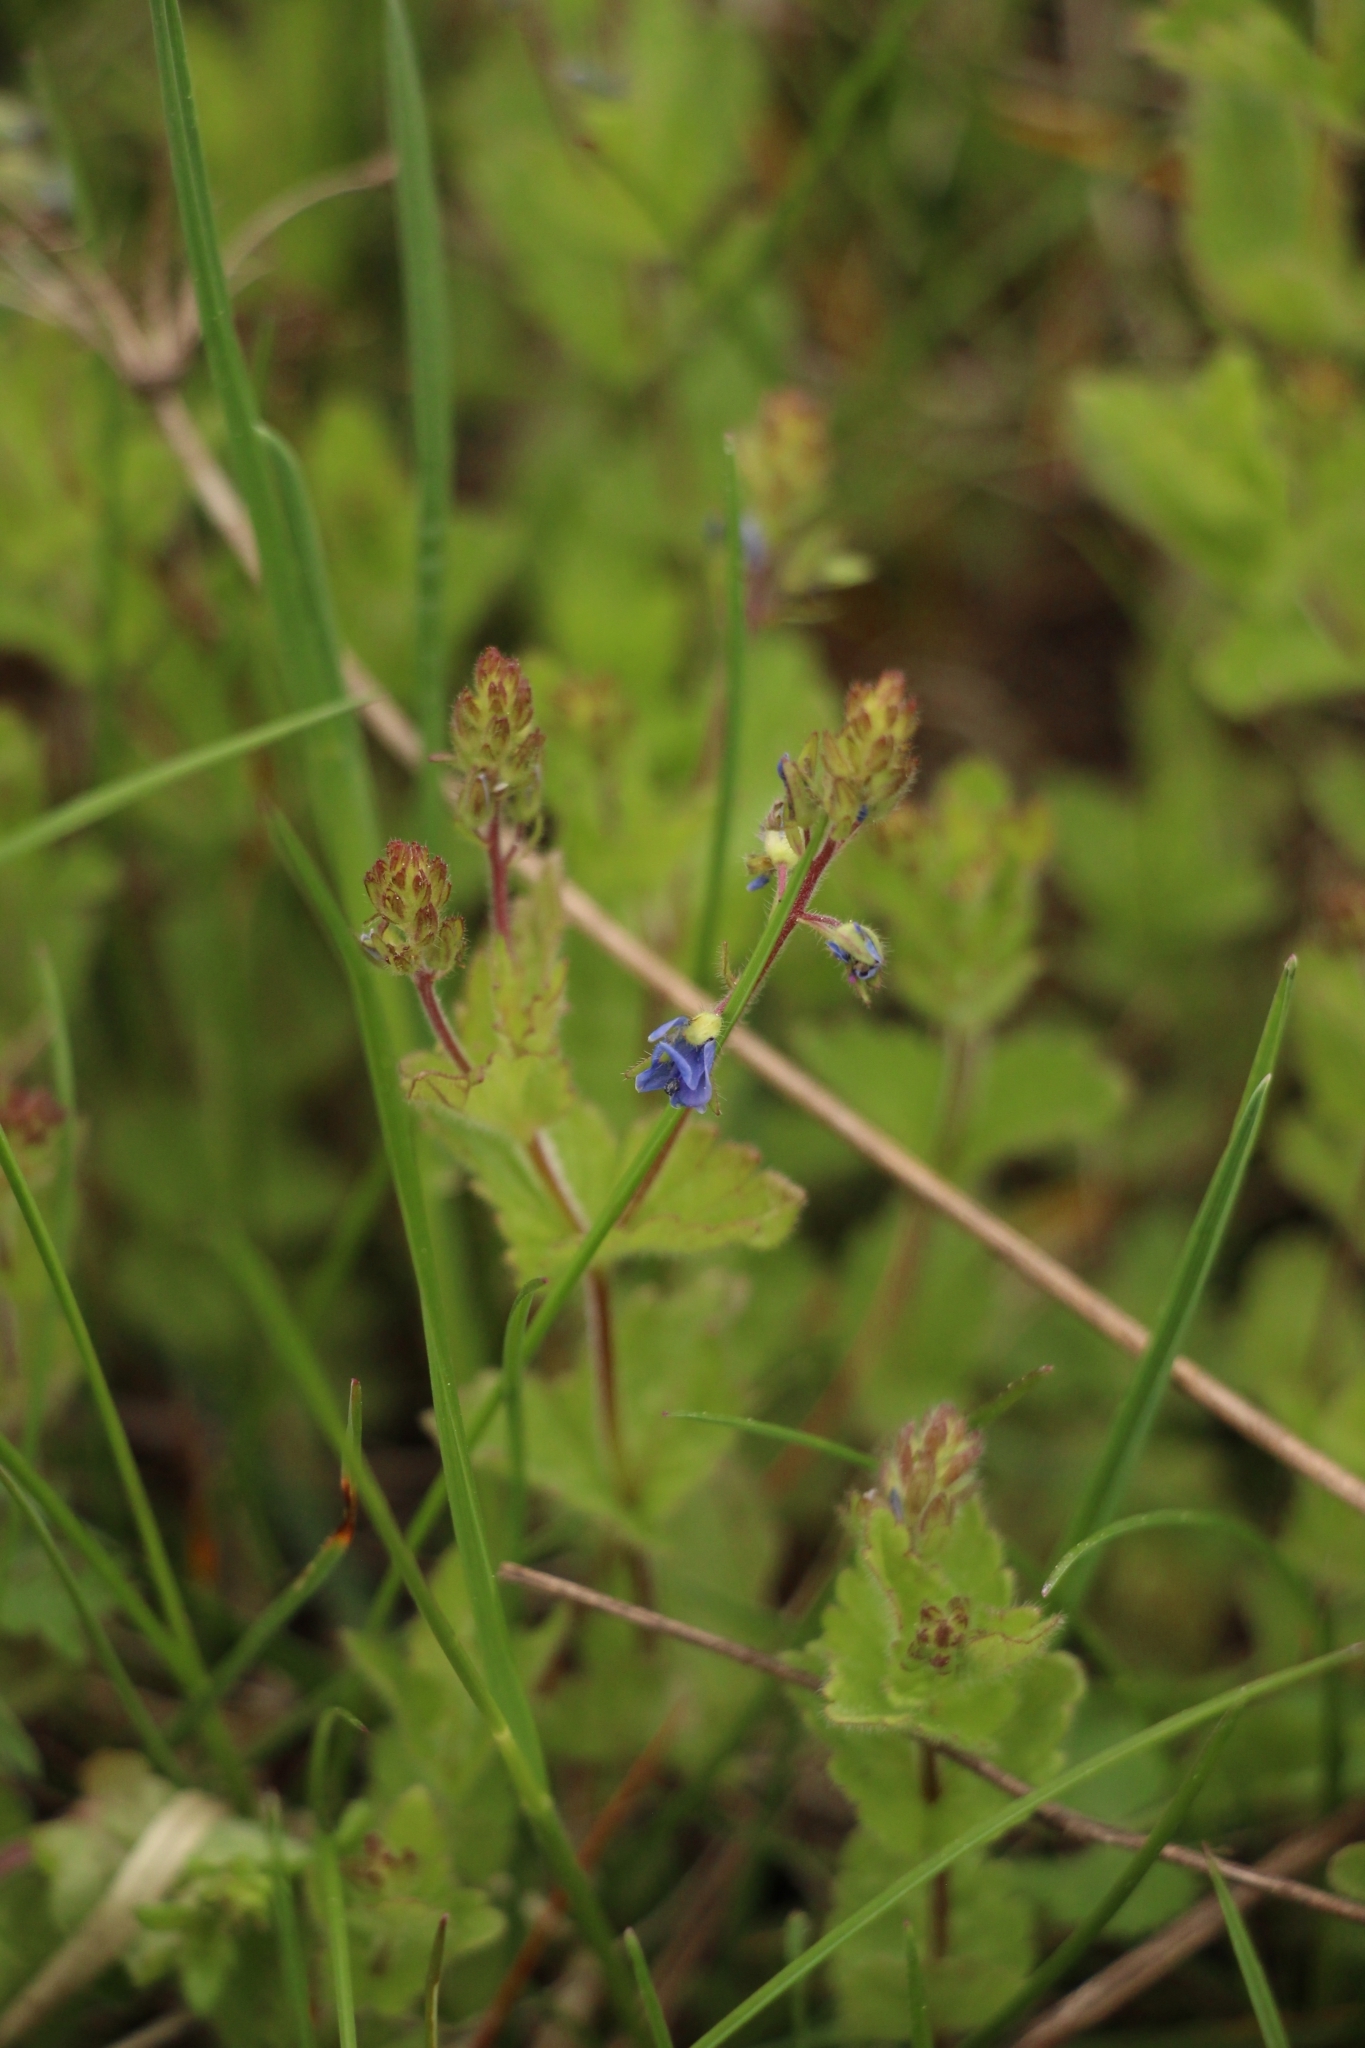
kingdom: Plantae
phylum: Tracheophyta
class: Magnoliopsida
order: Lamiales
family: Plantaginaceae
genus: Veronica
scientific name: Veronica chamaedrys
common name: Germander speedwell
